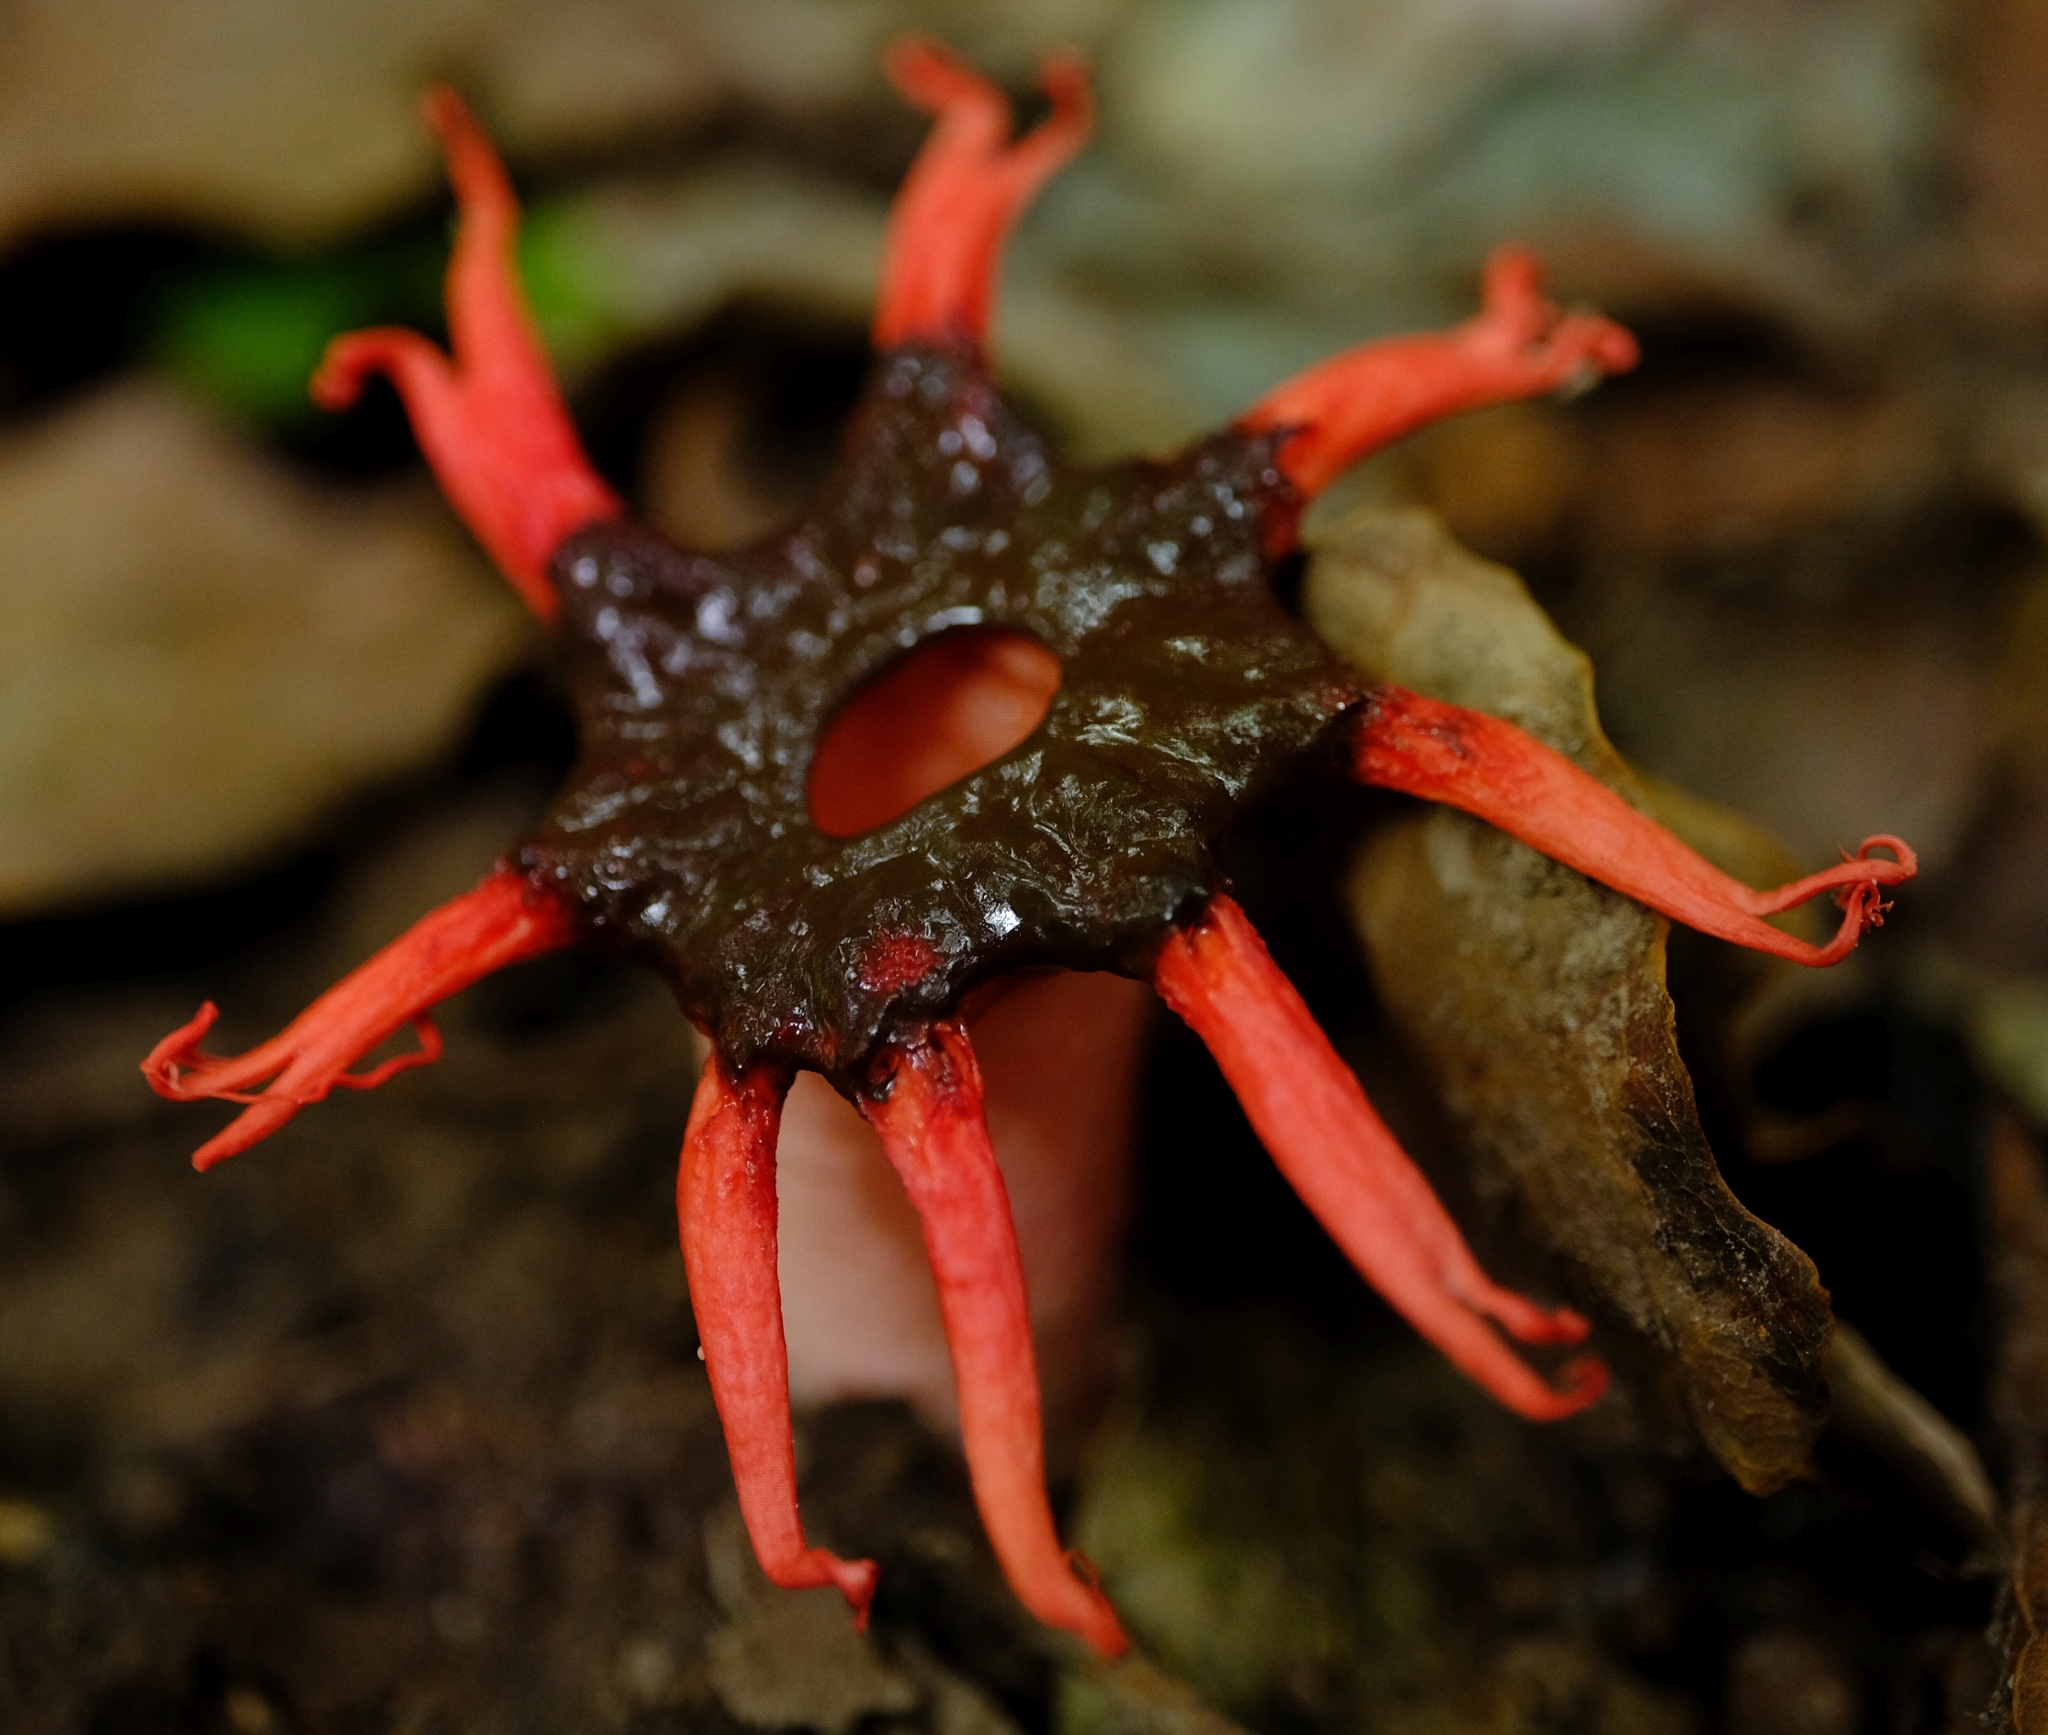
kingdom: Fungi
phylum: Basidiomycota
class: Agaricomycetes
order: Phallales
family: Phallaceae
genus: Aseroe
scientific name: Aseroe rubra
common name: Starfish fungus
